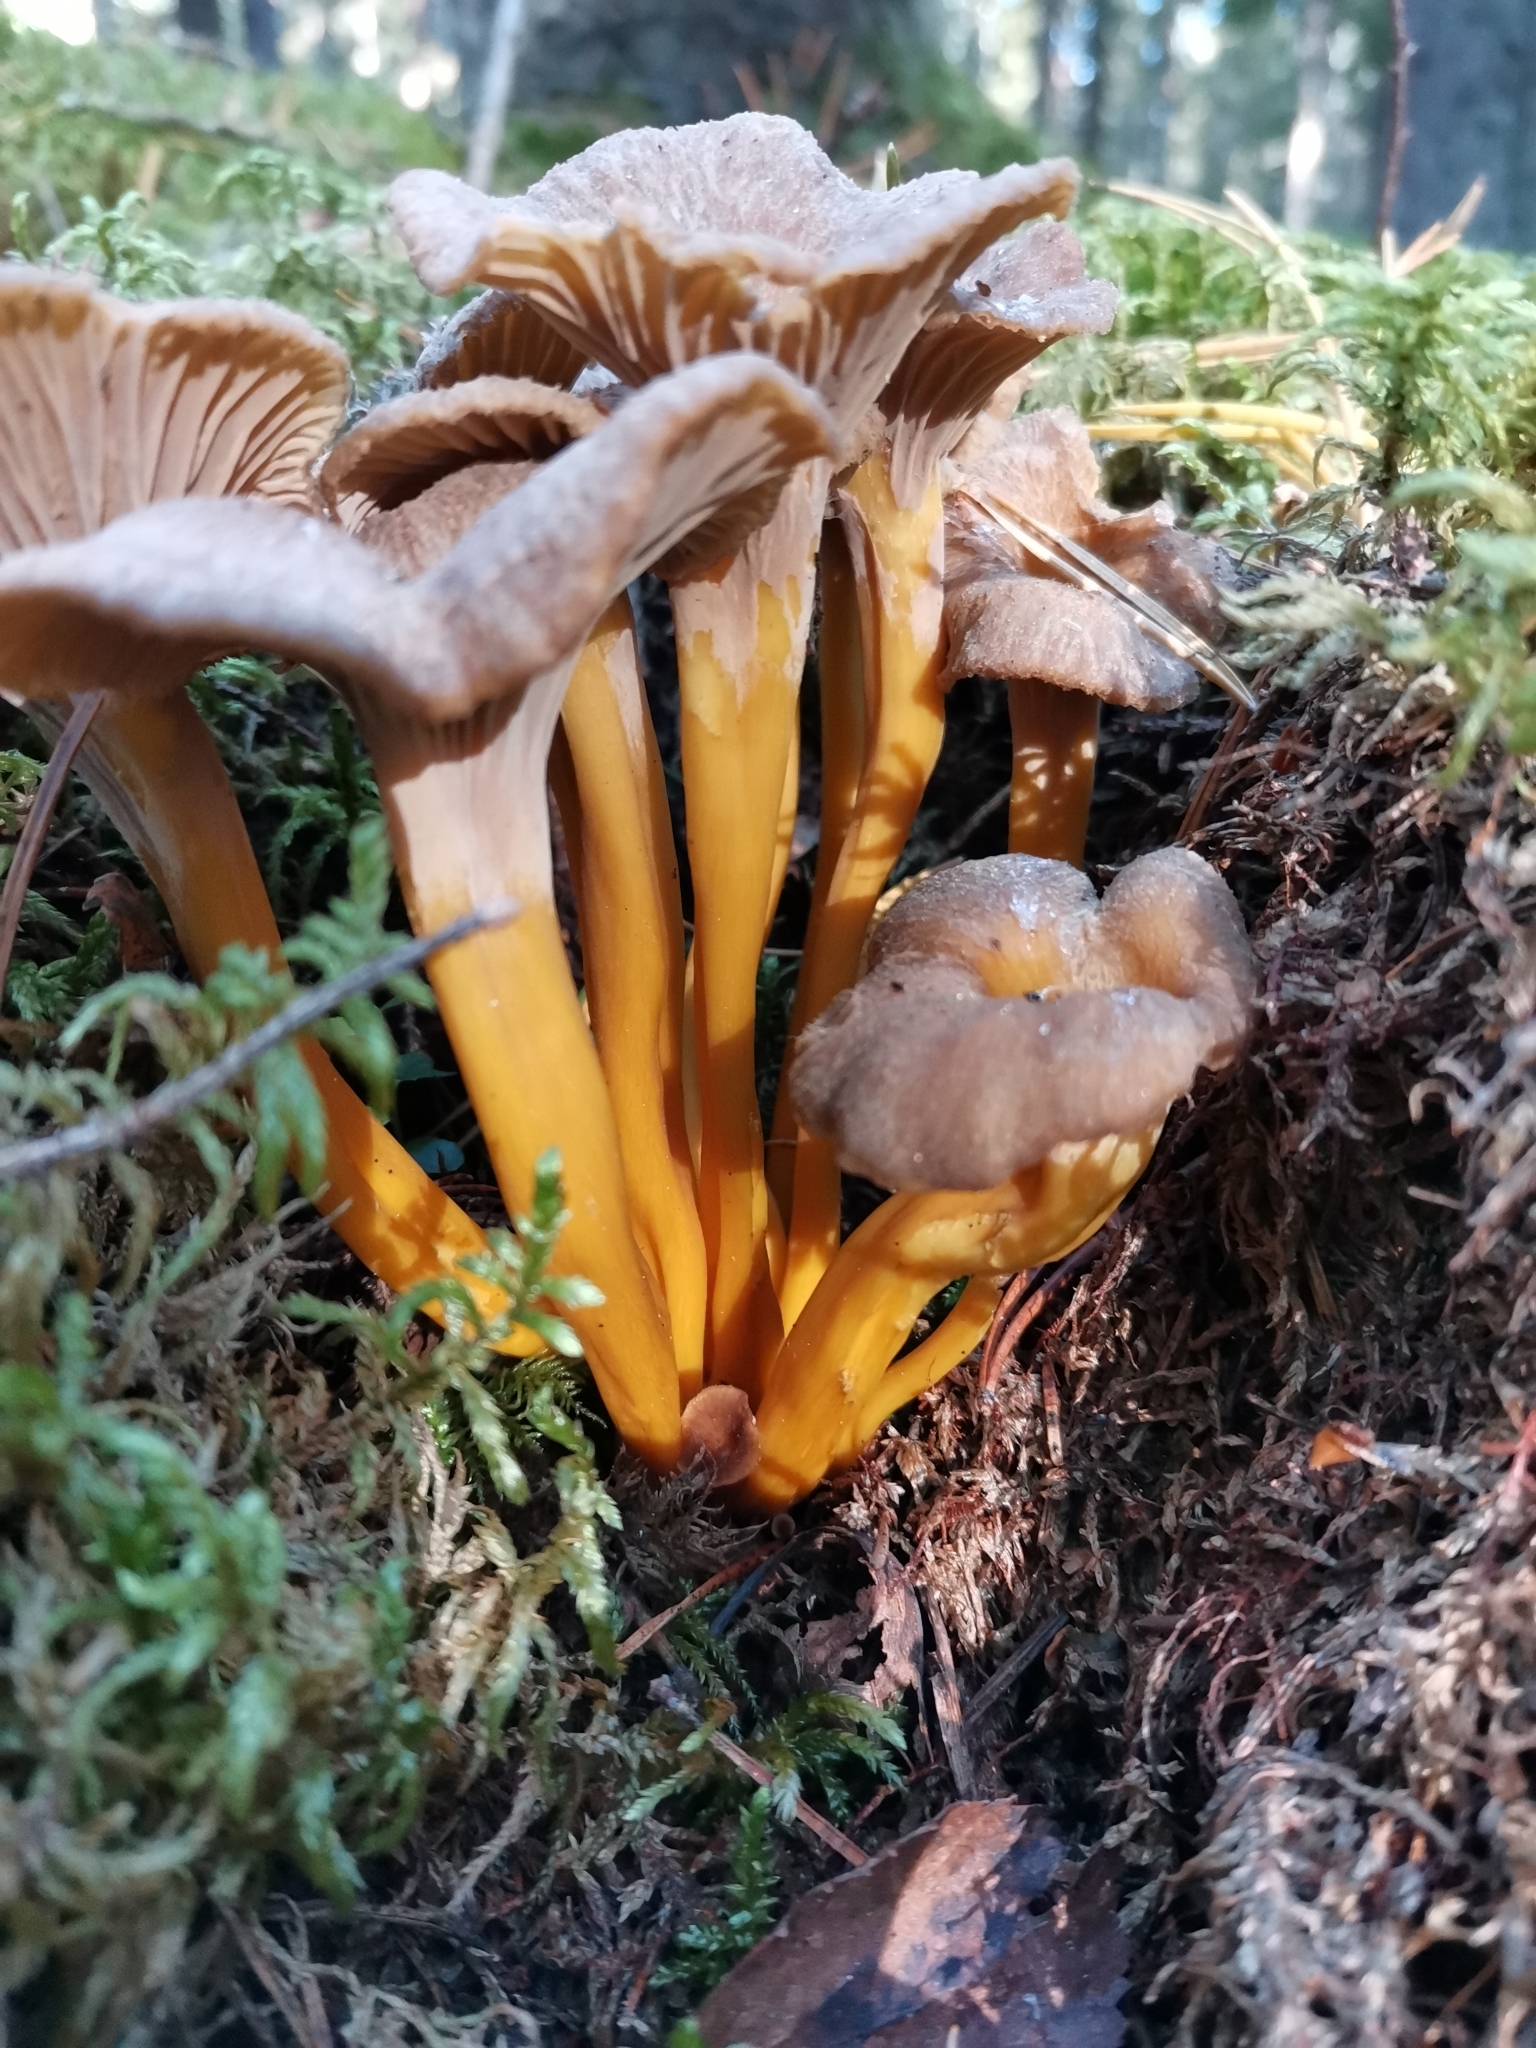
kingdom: Fungi
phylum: Basidiomycota
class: Agaricomycetes
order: Cantharellales
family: Hydnaceae
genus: Craterellus
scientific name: Craterellus tubaeformis
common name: Yellowfoot
